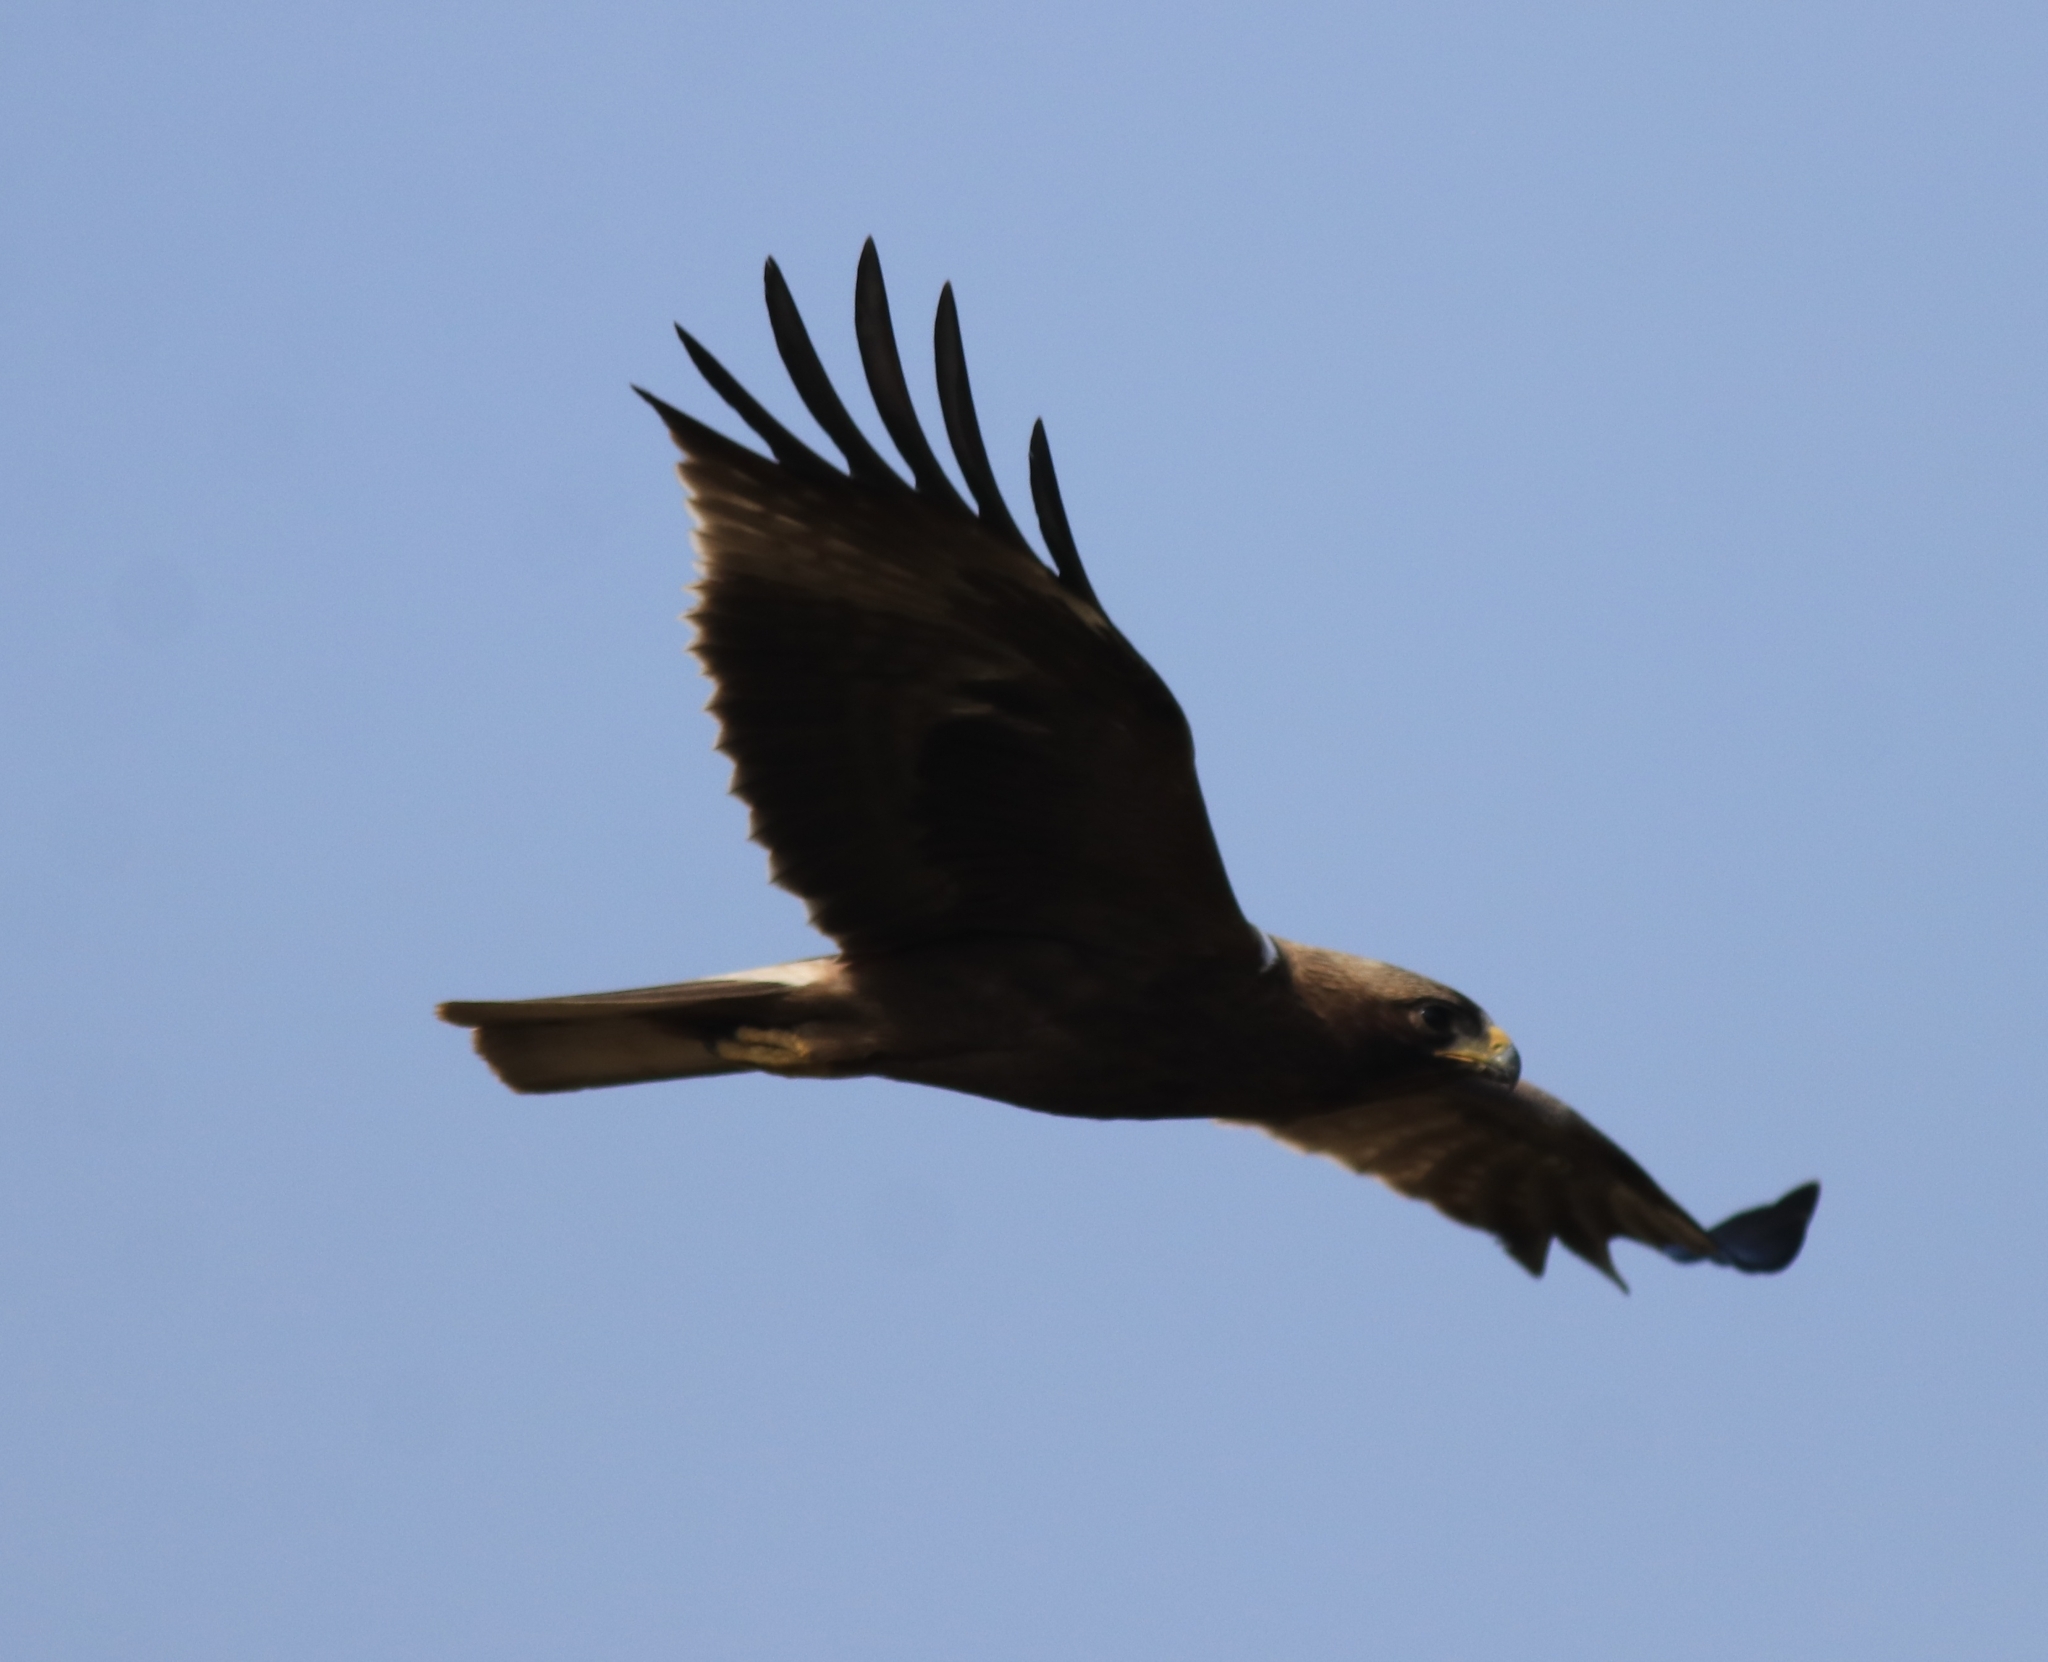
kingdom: Animalia
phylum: Chordata
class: Aves
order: Accipitriformes
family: Accipitridae
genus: Hieraaetus
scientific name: Hieraaetus pennatus
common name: Booted eagle
